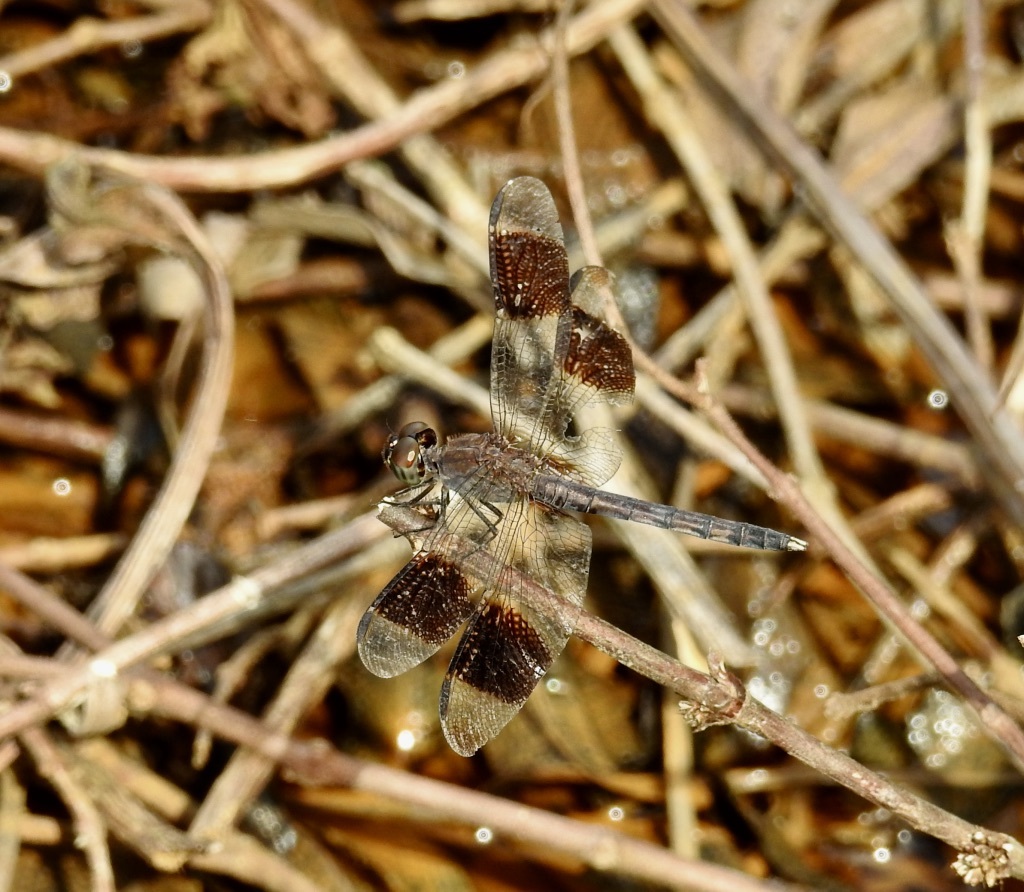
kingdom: Animalia
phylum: Arthropoda
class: Insecta
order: Odonata
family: Libellulidae
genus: Erythrodiplax
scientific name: Erythrodiplax umbrata
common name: Band-winged dragonlet
